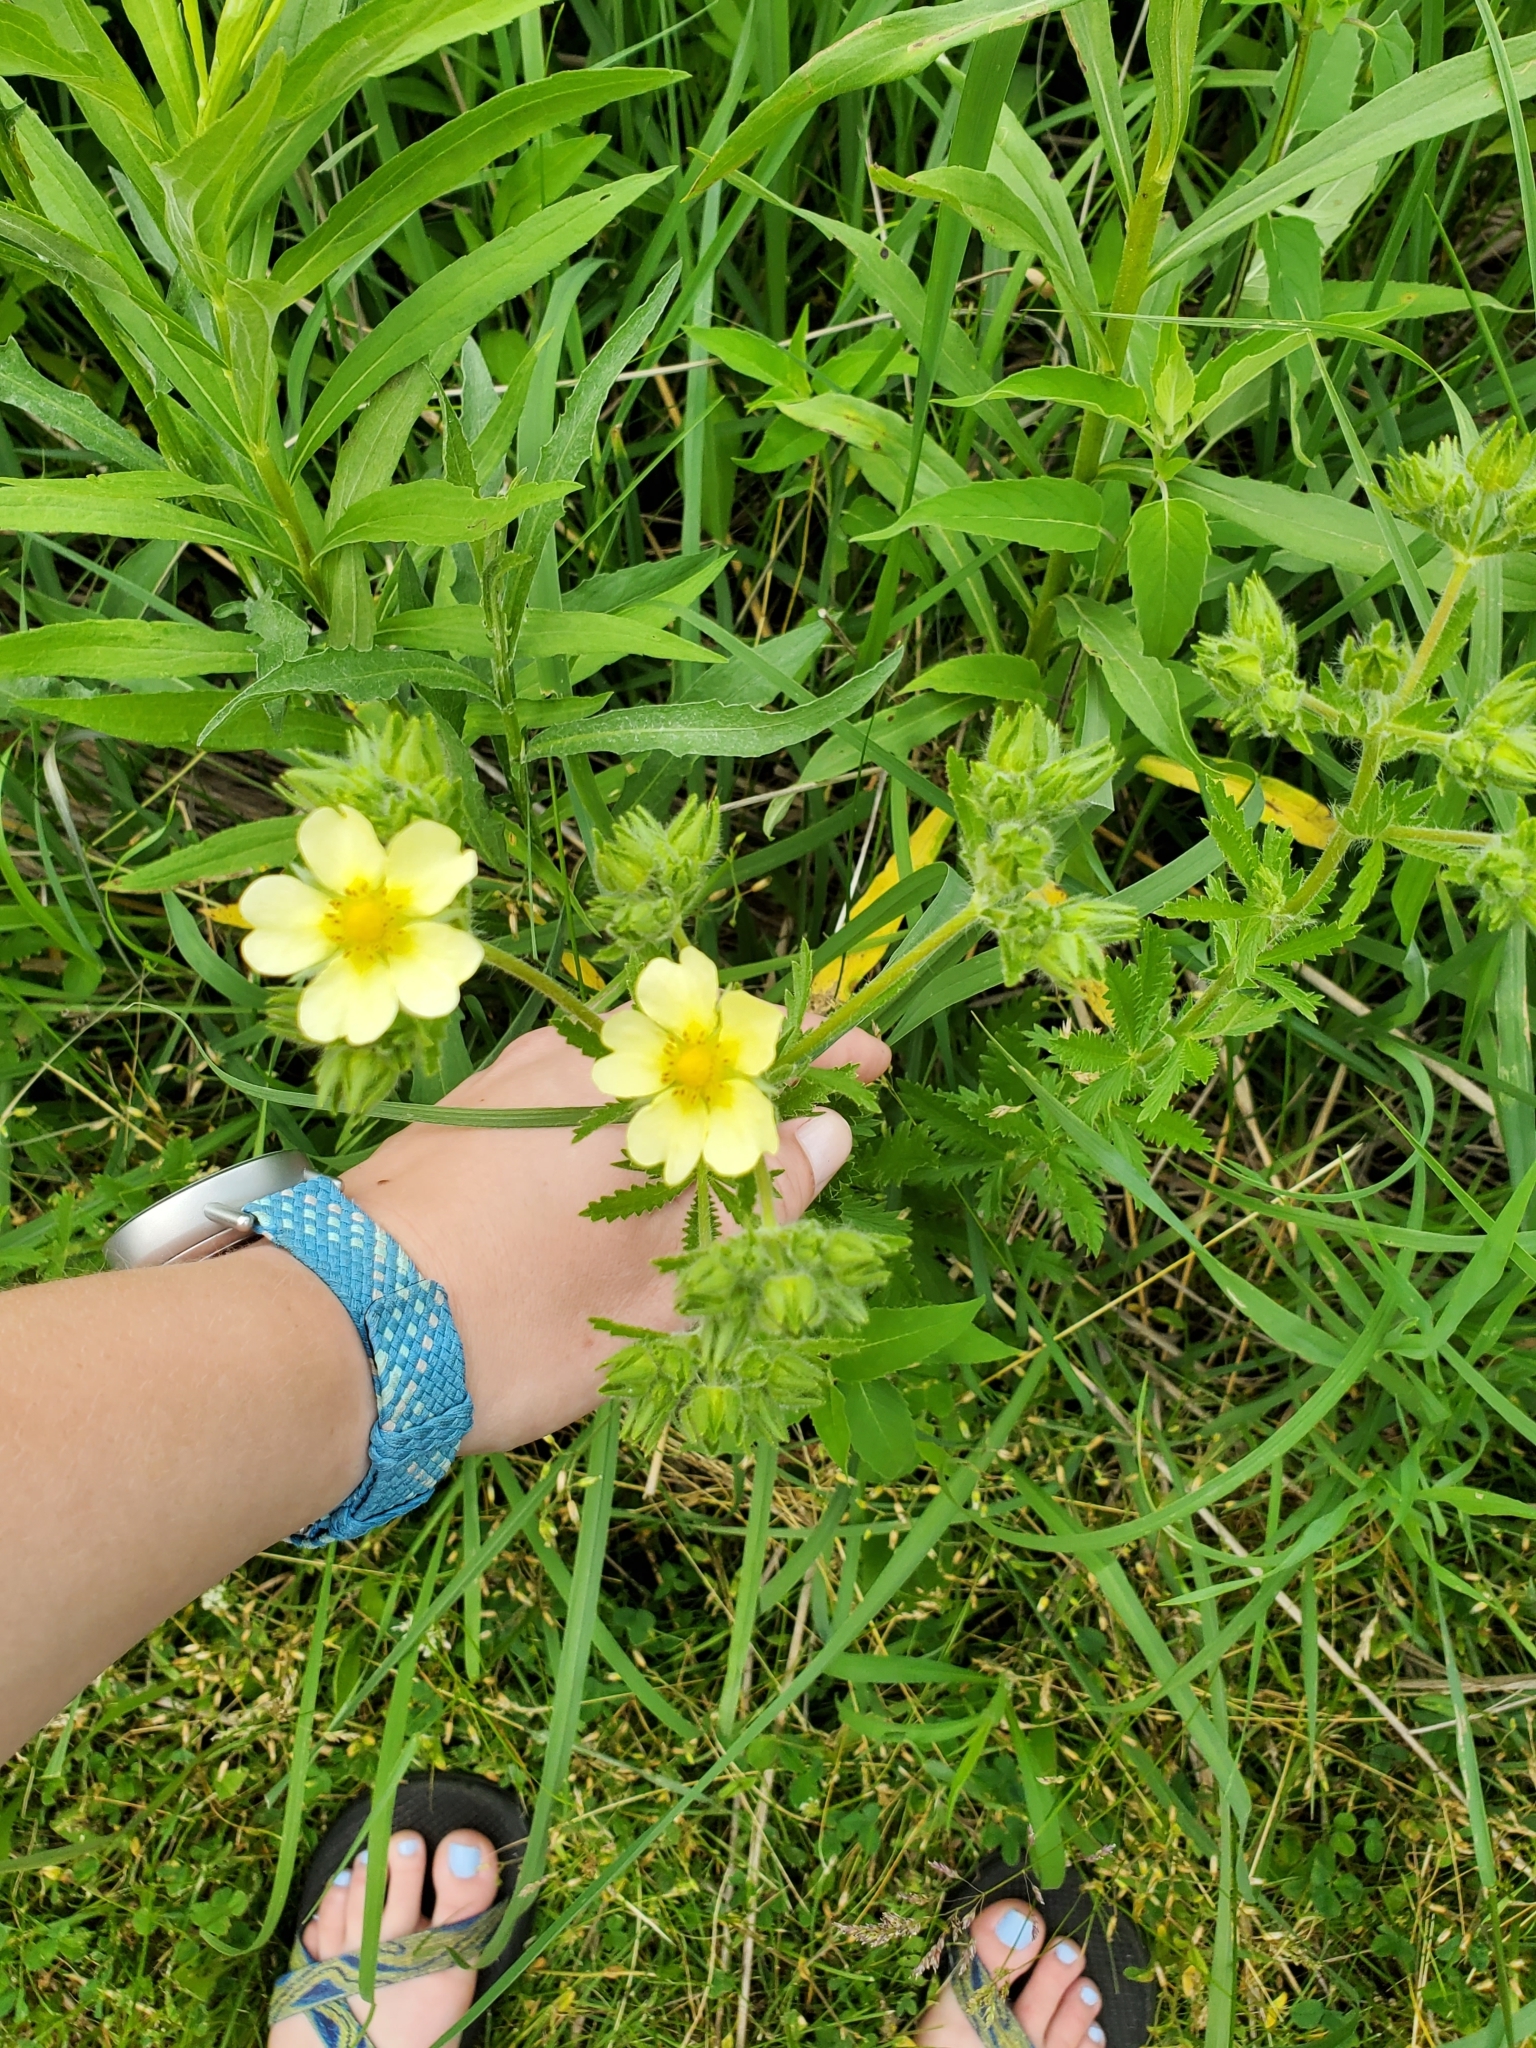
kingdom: Plantae
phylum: Tracheophyta
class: Magnoliopsida
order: Rosales
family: Rosaceae
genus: Potentilla
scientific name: Potentilla recta
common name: Sulphur cinquefoil
